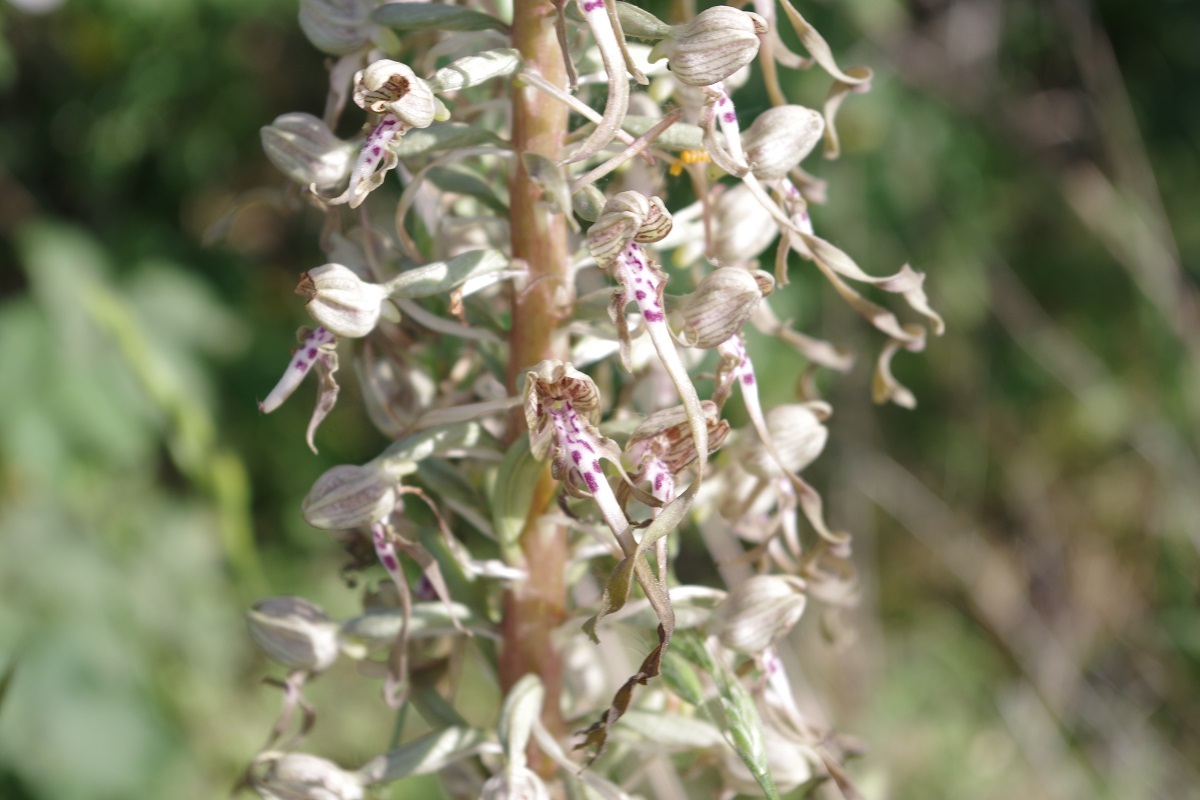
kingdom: Plantae
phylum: Tracheophyta
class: Liliopsida
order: Asparagales
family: Orchidaceae
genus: Himantoglossum
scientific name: Himantoglossum hircinum
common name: Lizard orchid
